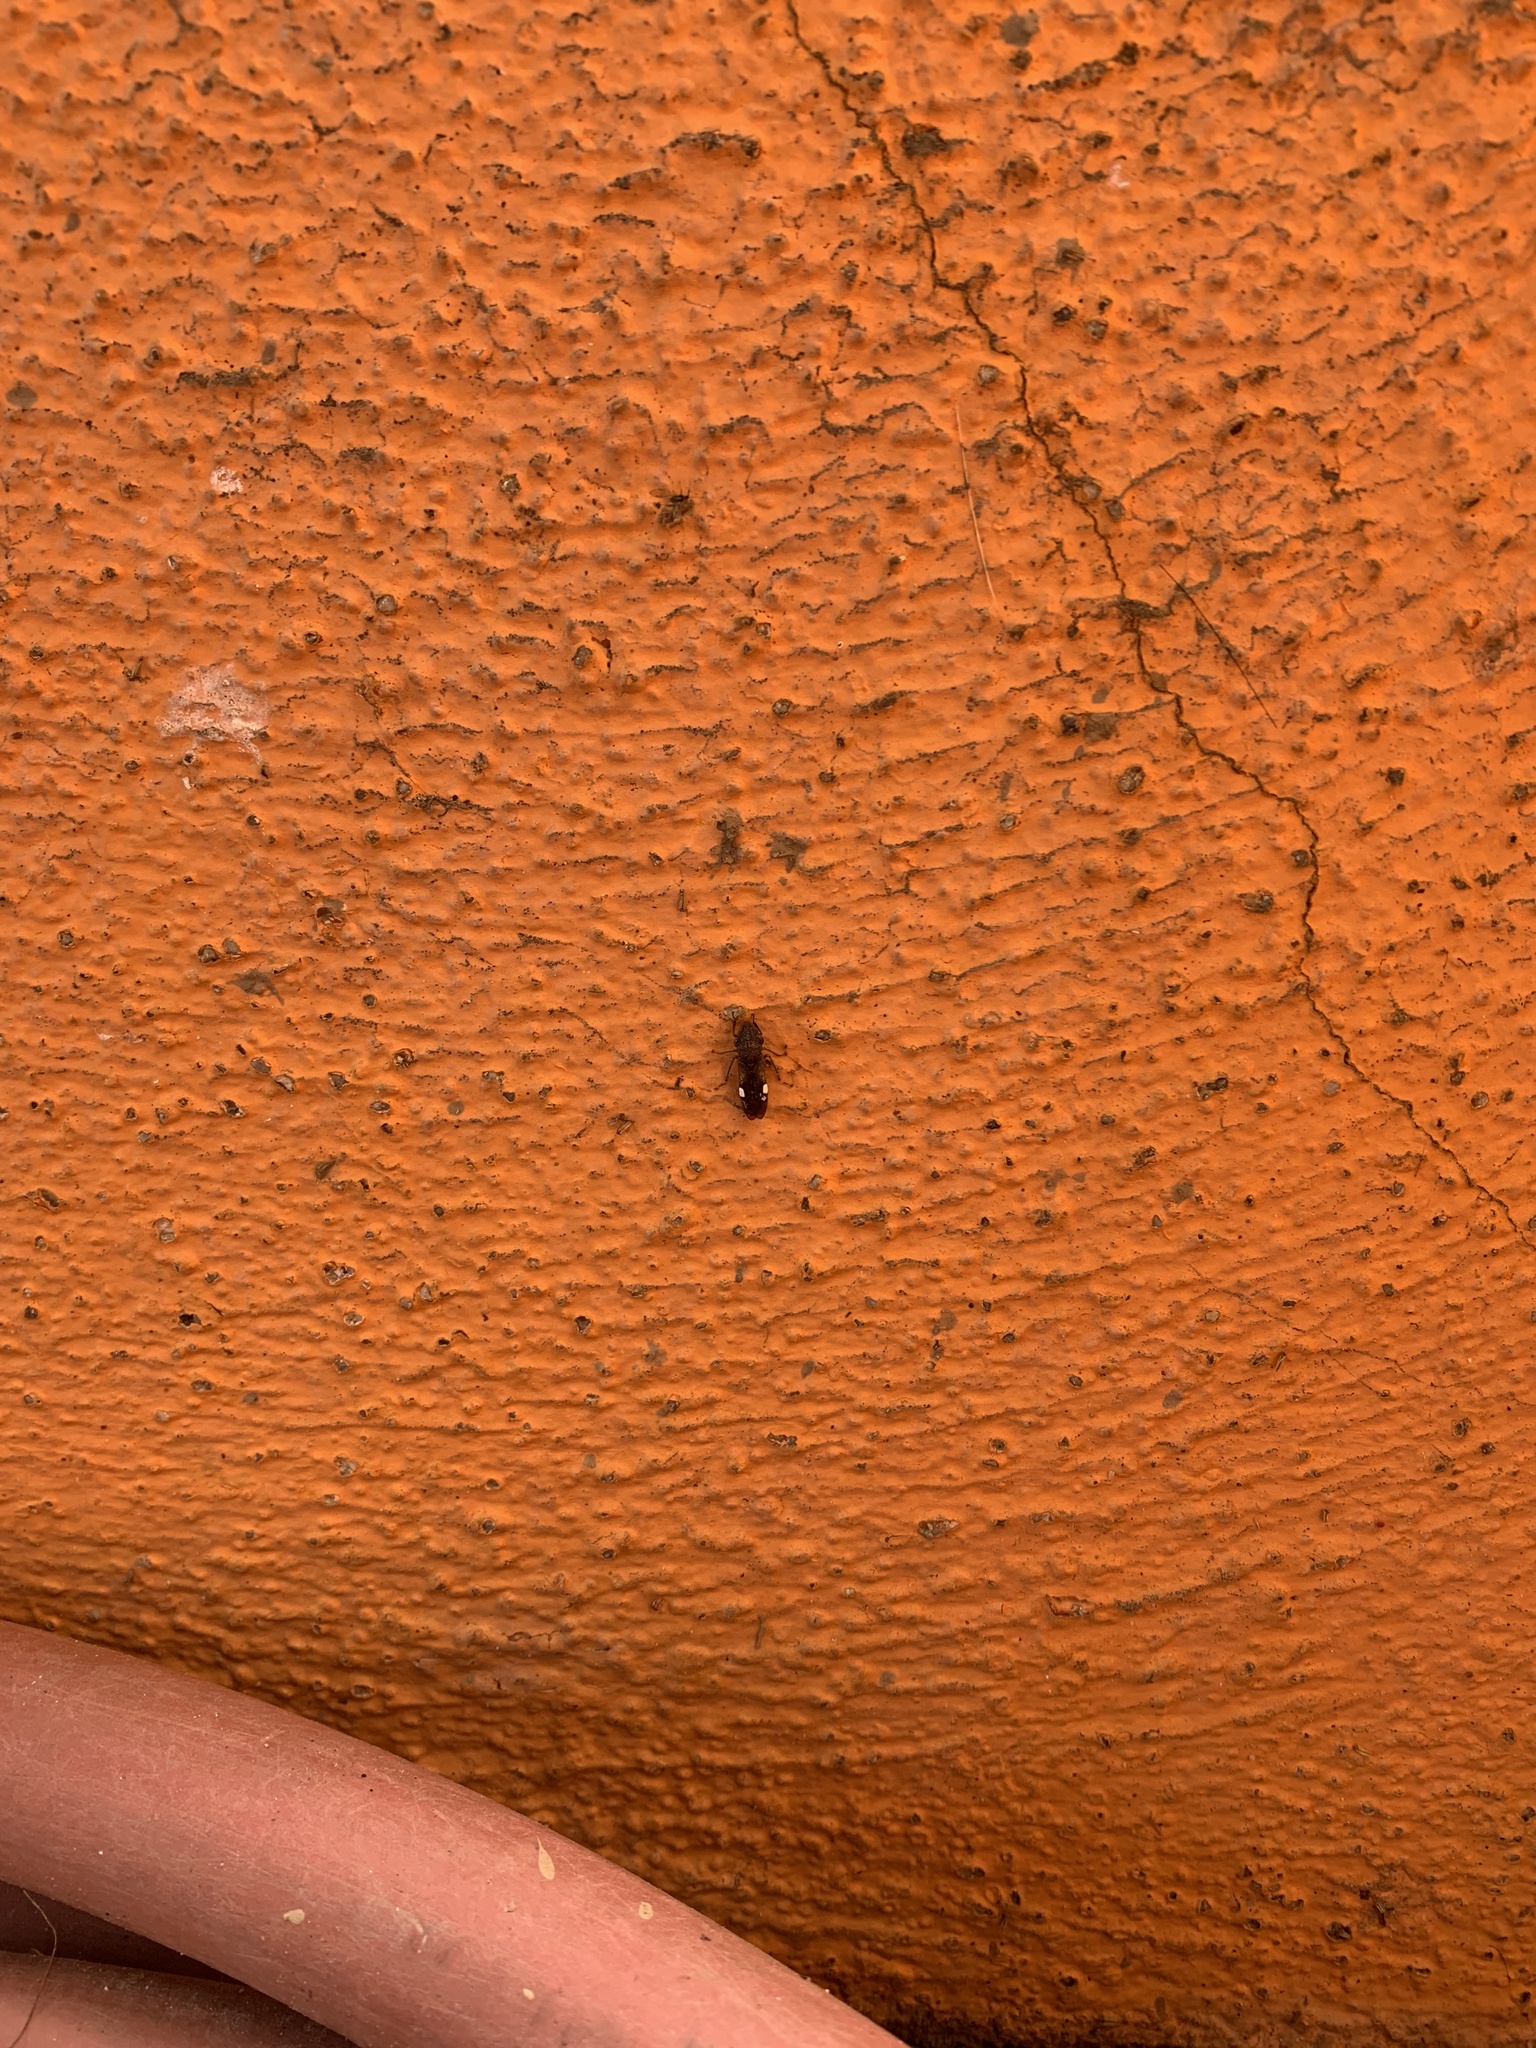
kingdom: Animalia
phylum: Arthropoda
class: Insecta
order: Hemiptera
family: Cicadellidae
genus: Homalodisca
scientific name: Homalodisca vitripennis
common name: Glassy-winged sharpshooter
